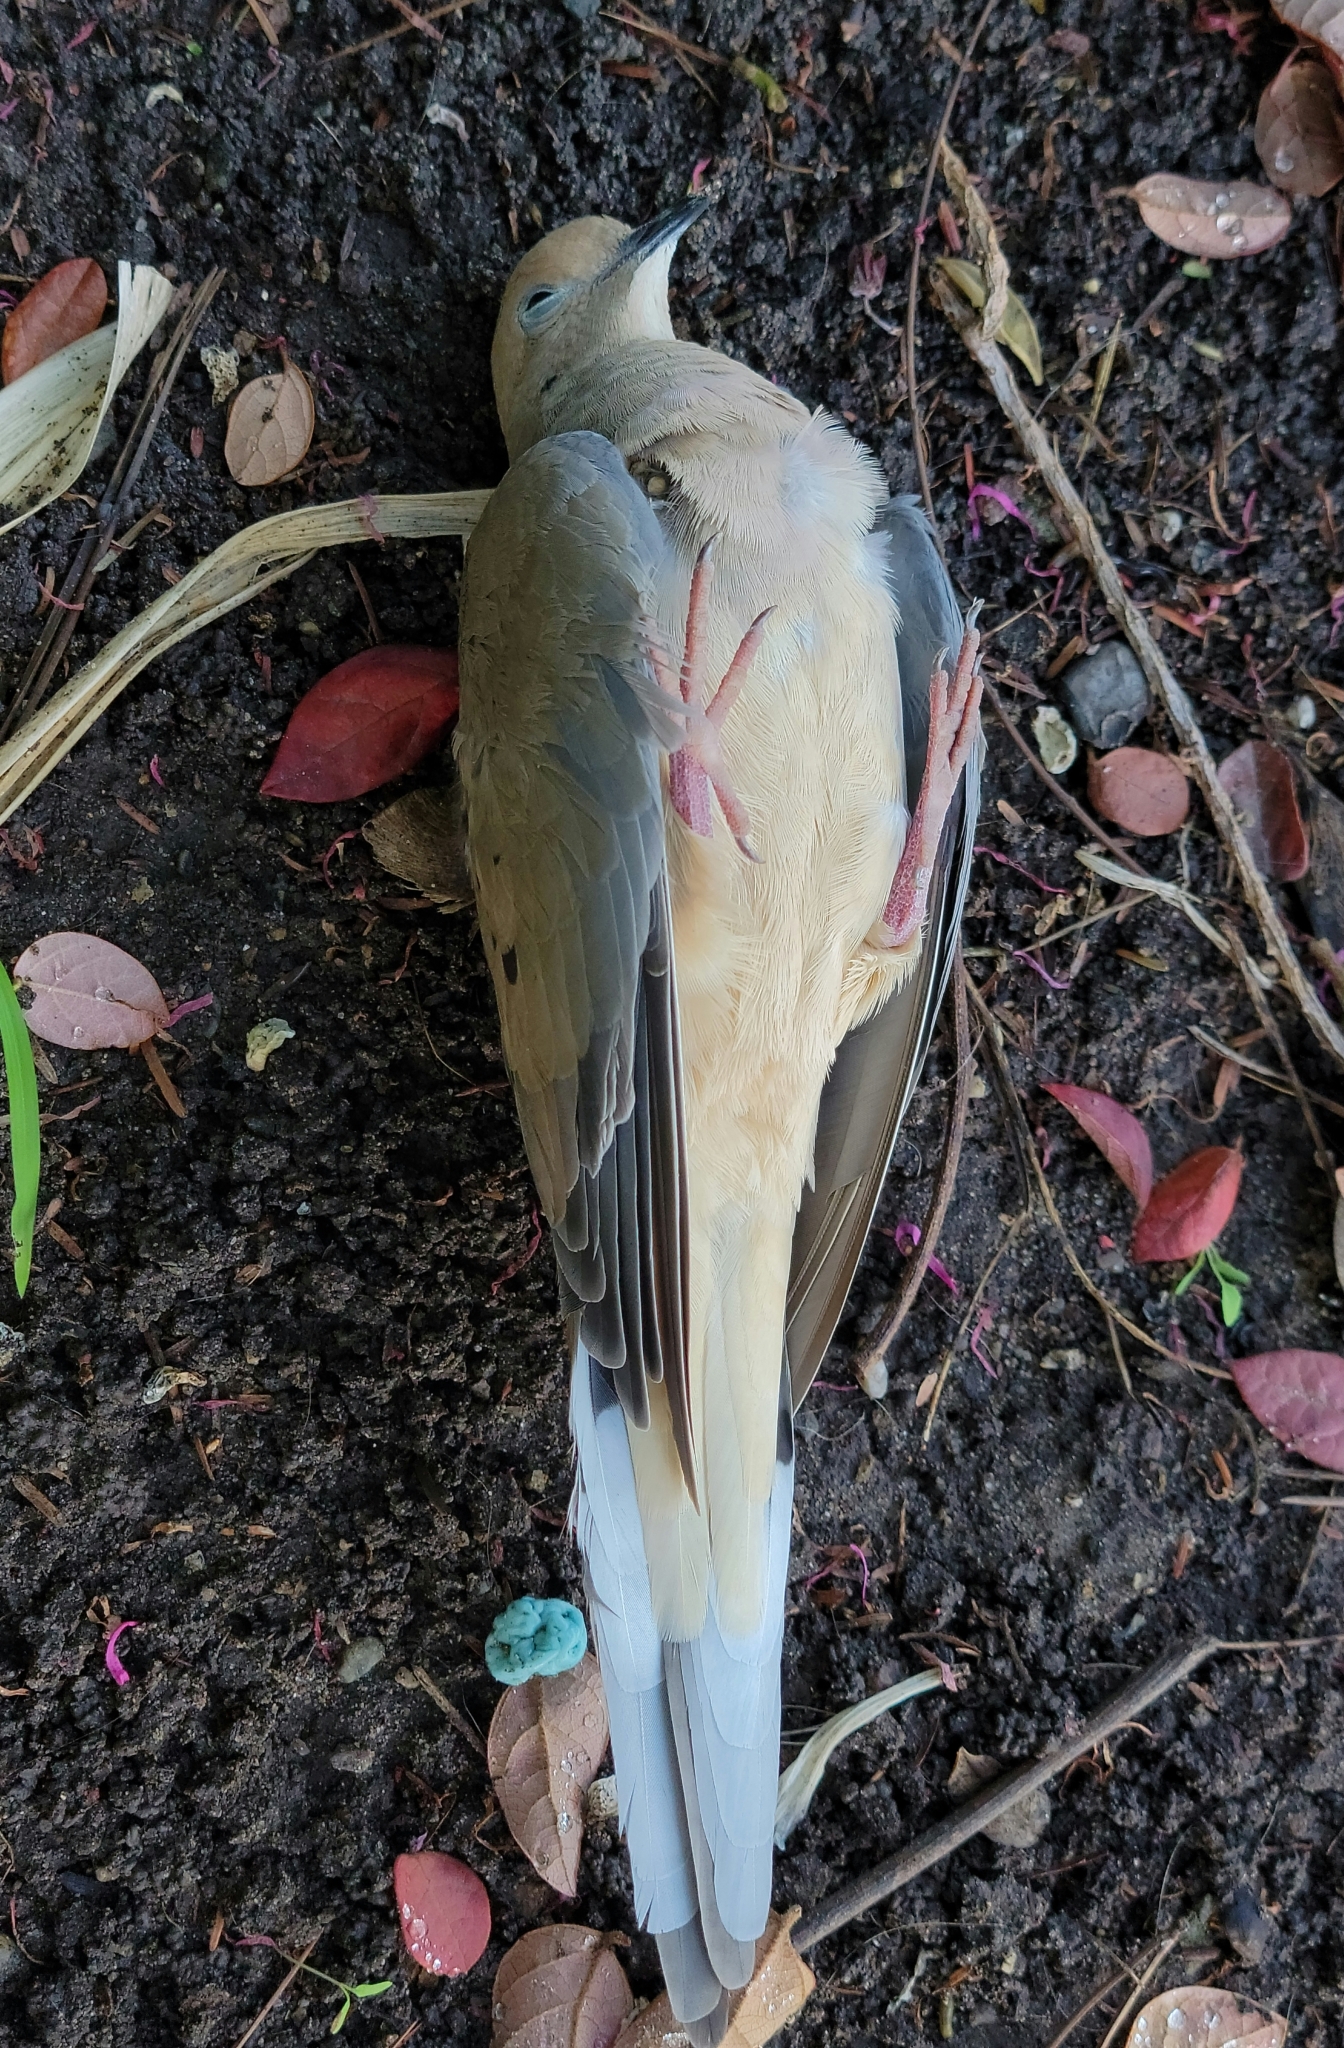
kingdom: Animalia
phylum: Chordata
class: Aves
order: Columbiformes
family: Columbidae
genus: Zenaida
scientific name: Zenaida macroura
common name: Mourning dove
